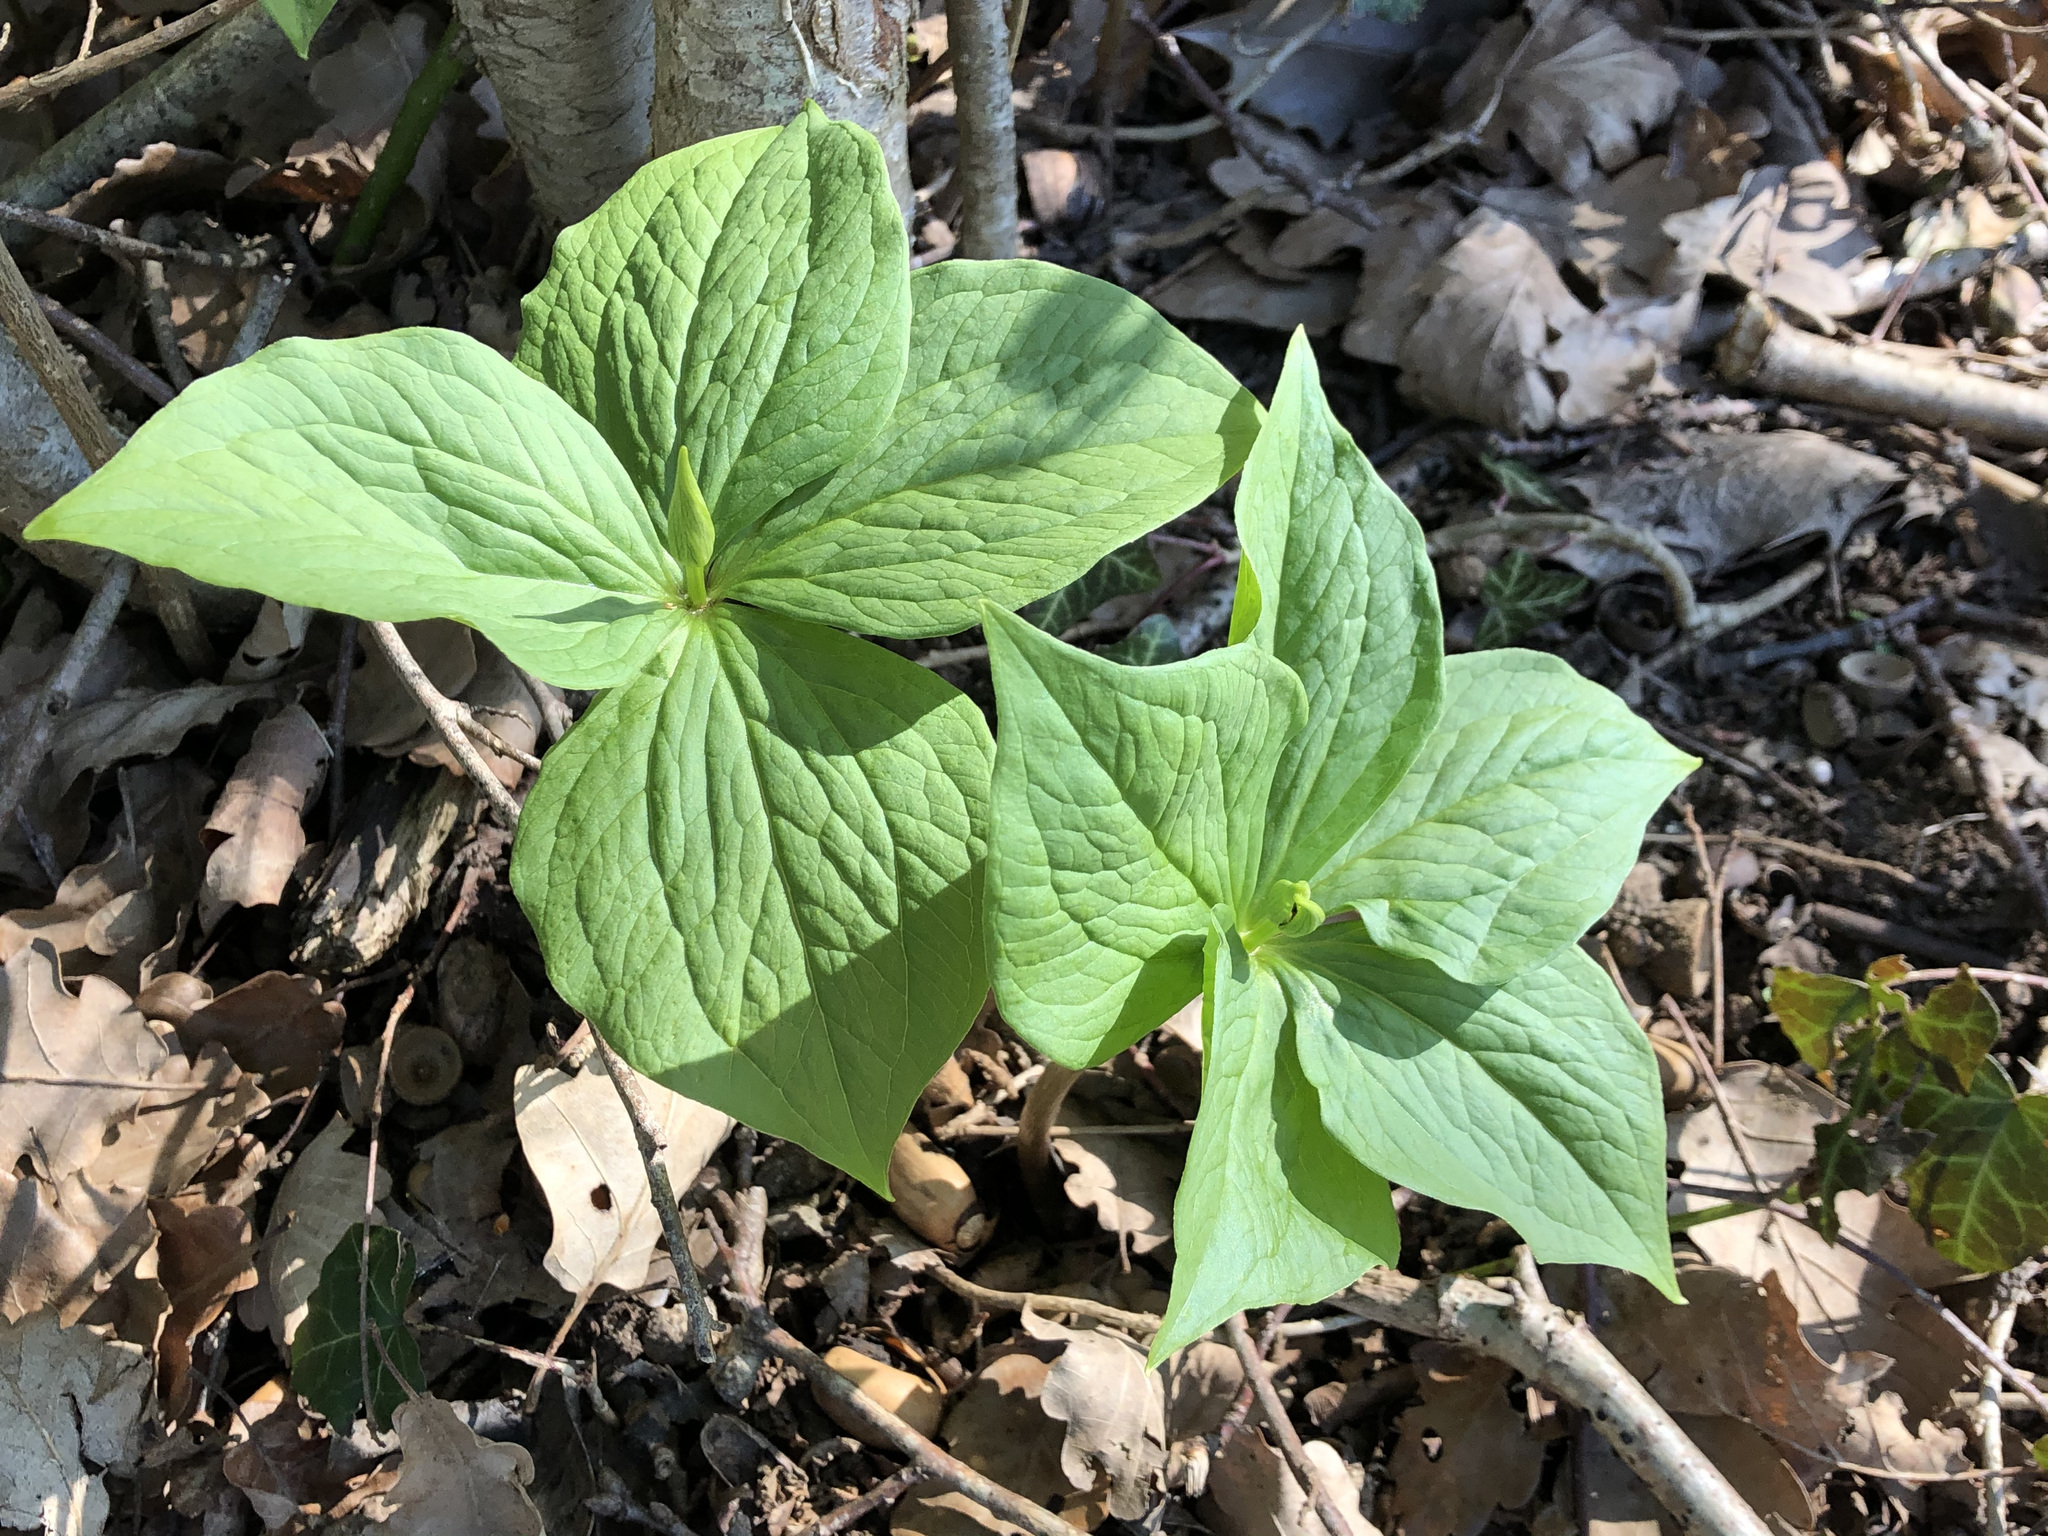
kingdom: Plantae
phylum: Tracheophyta
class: Liliopsida
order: Liliales
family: Melanthiaceae
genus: Paris
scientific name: Paris quadrifolia
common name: Herb-paris
